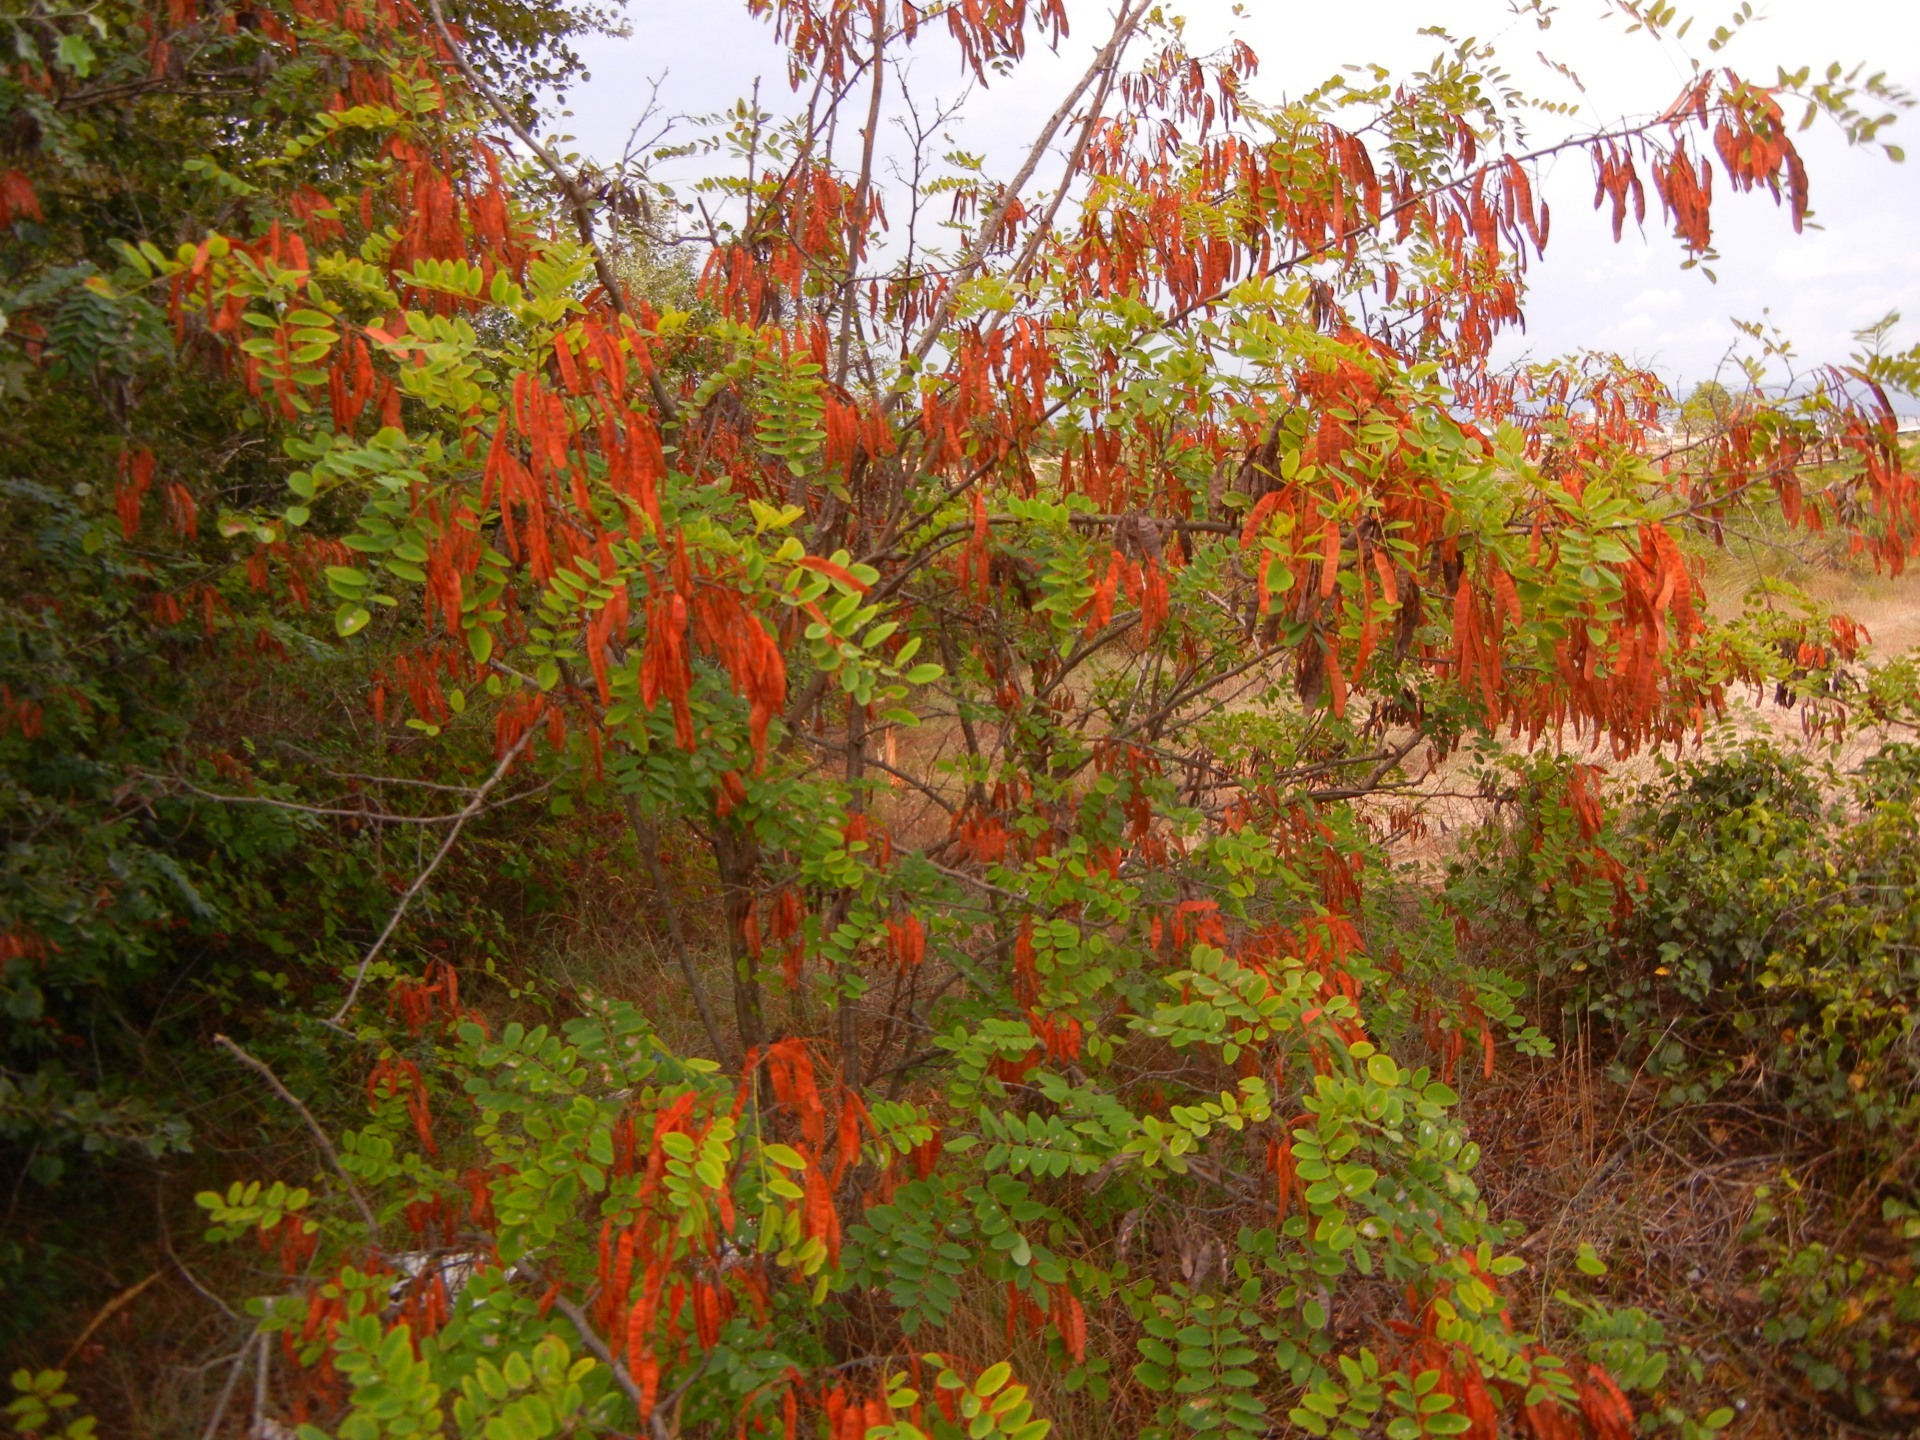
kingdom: Plantae
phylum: Tracheophyta
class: Magnoliopsida
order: Fabales
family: Fabaceae
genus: Robinia
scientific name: Robinia pseudoacacia
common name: Black locust
